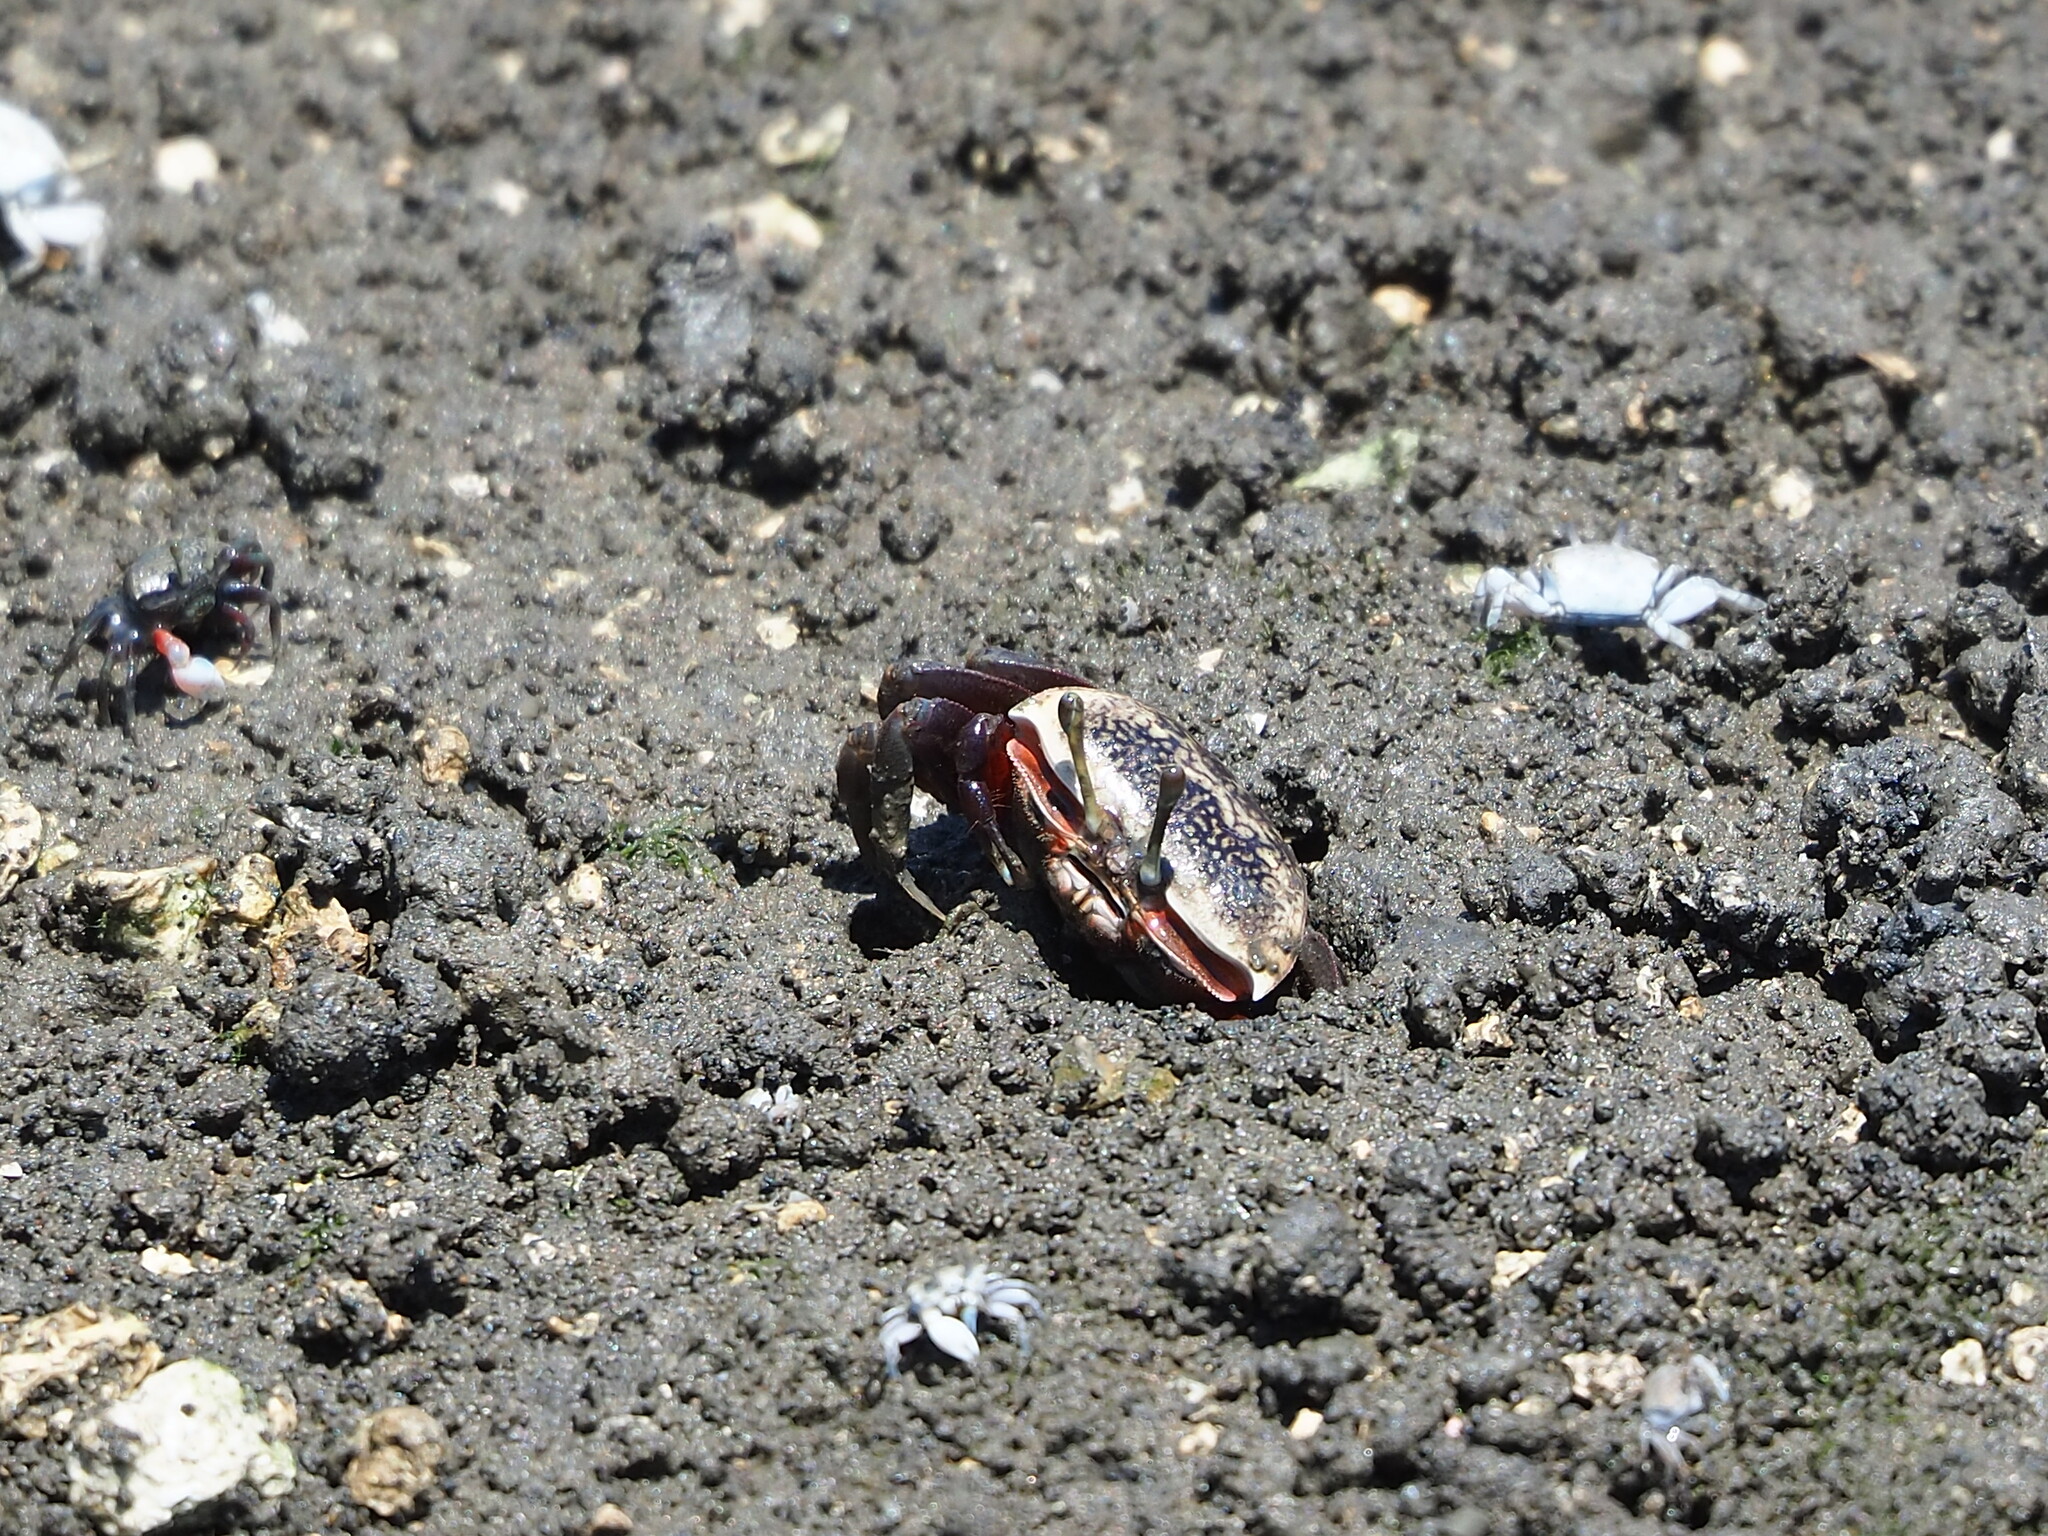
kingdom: Animalia
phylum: Arthropoda
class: Malacostraca
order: Decapoda
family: Ocypodidae
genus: Tubuca
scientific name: Tubuca arcuata
